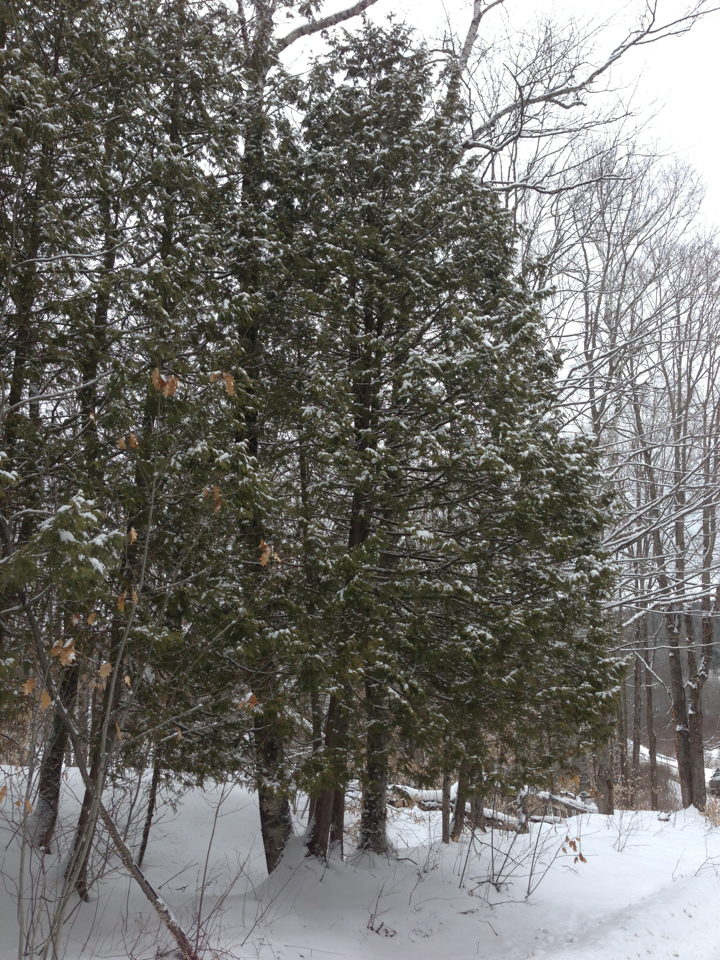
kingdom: Plantae
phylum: Tracheophyta
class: Pinopsida
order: Pinales
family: Cupressaceae
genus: Thuja
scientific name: Thuja occidentalis
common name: Northern white-cedar
